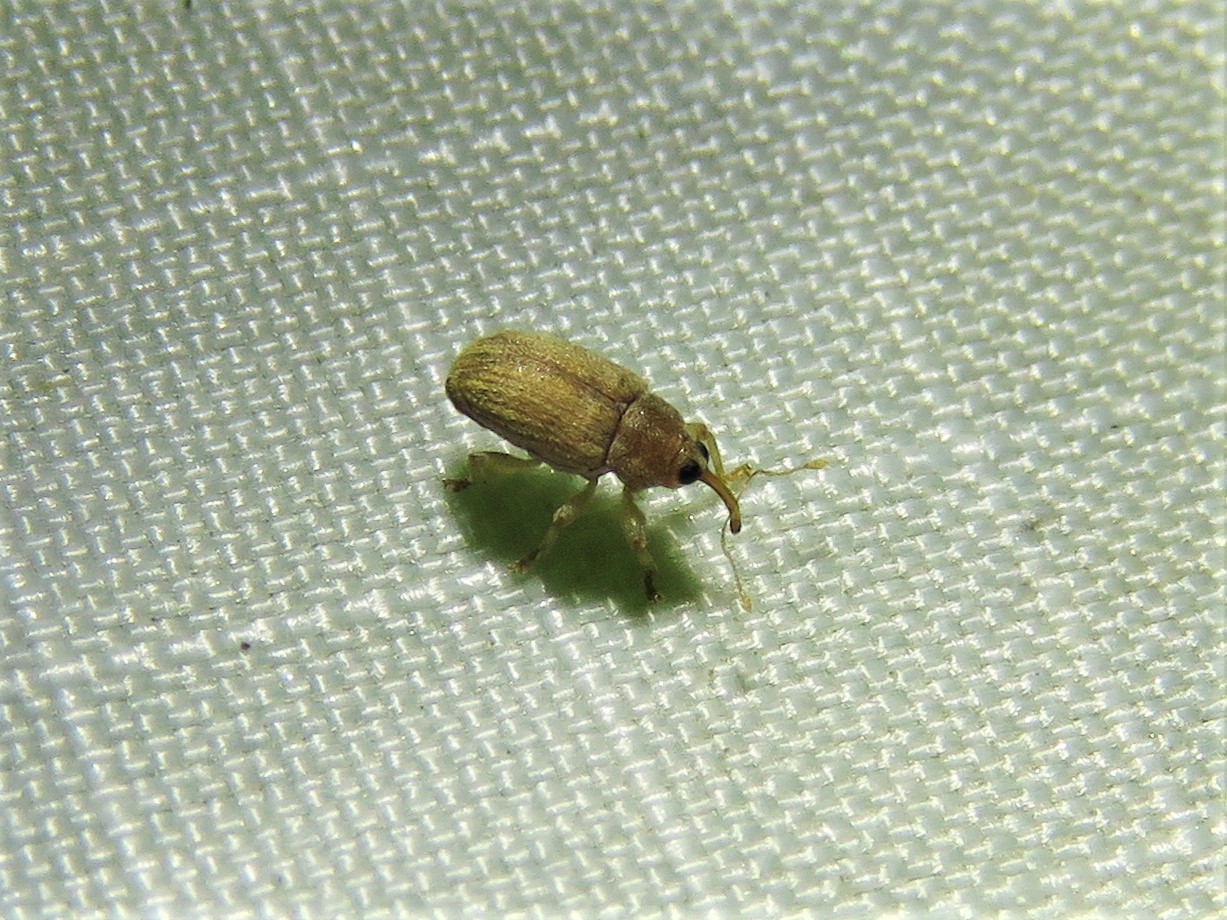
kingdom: Animalia
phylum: Arthropoda
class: Insecta
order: Coleoptera
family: Curculionidae
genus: Lignyodes
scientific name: Lignyodes helvolus
